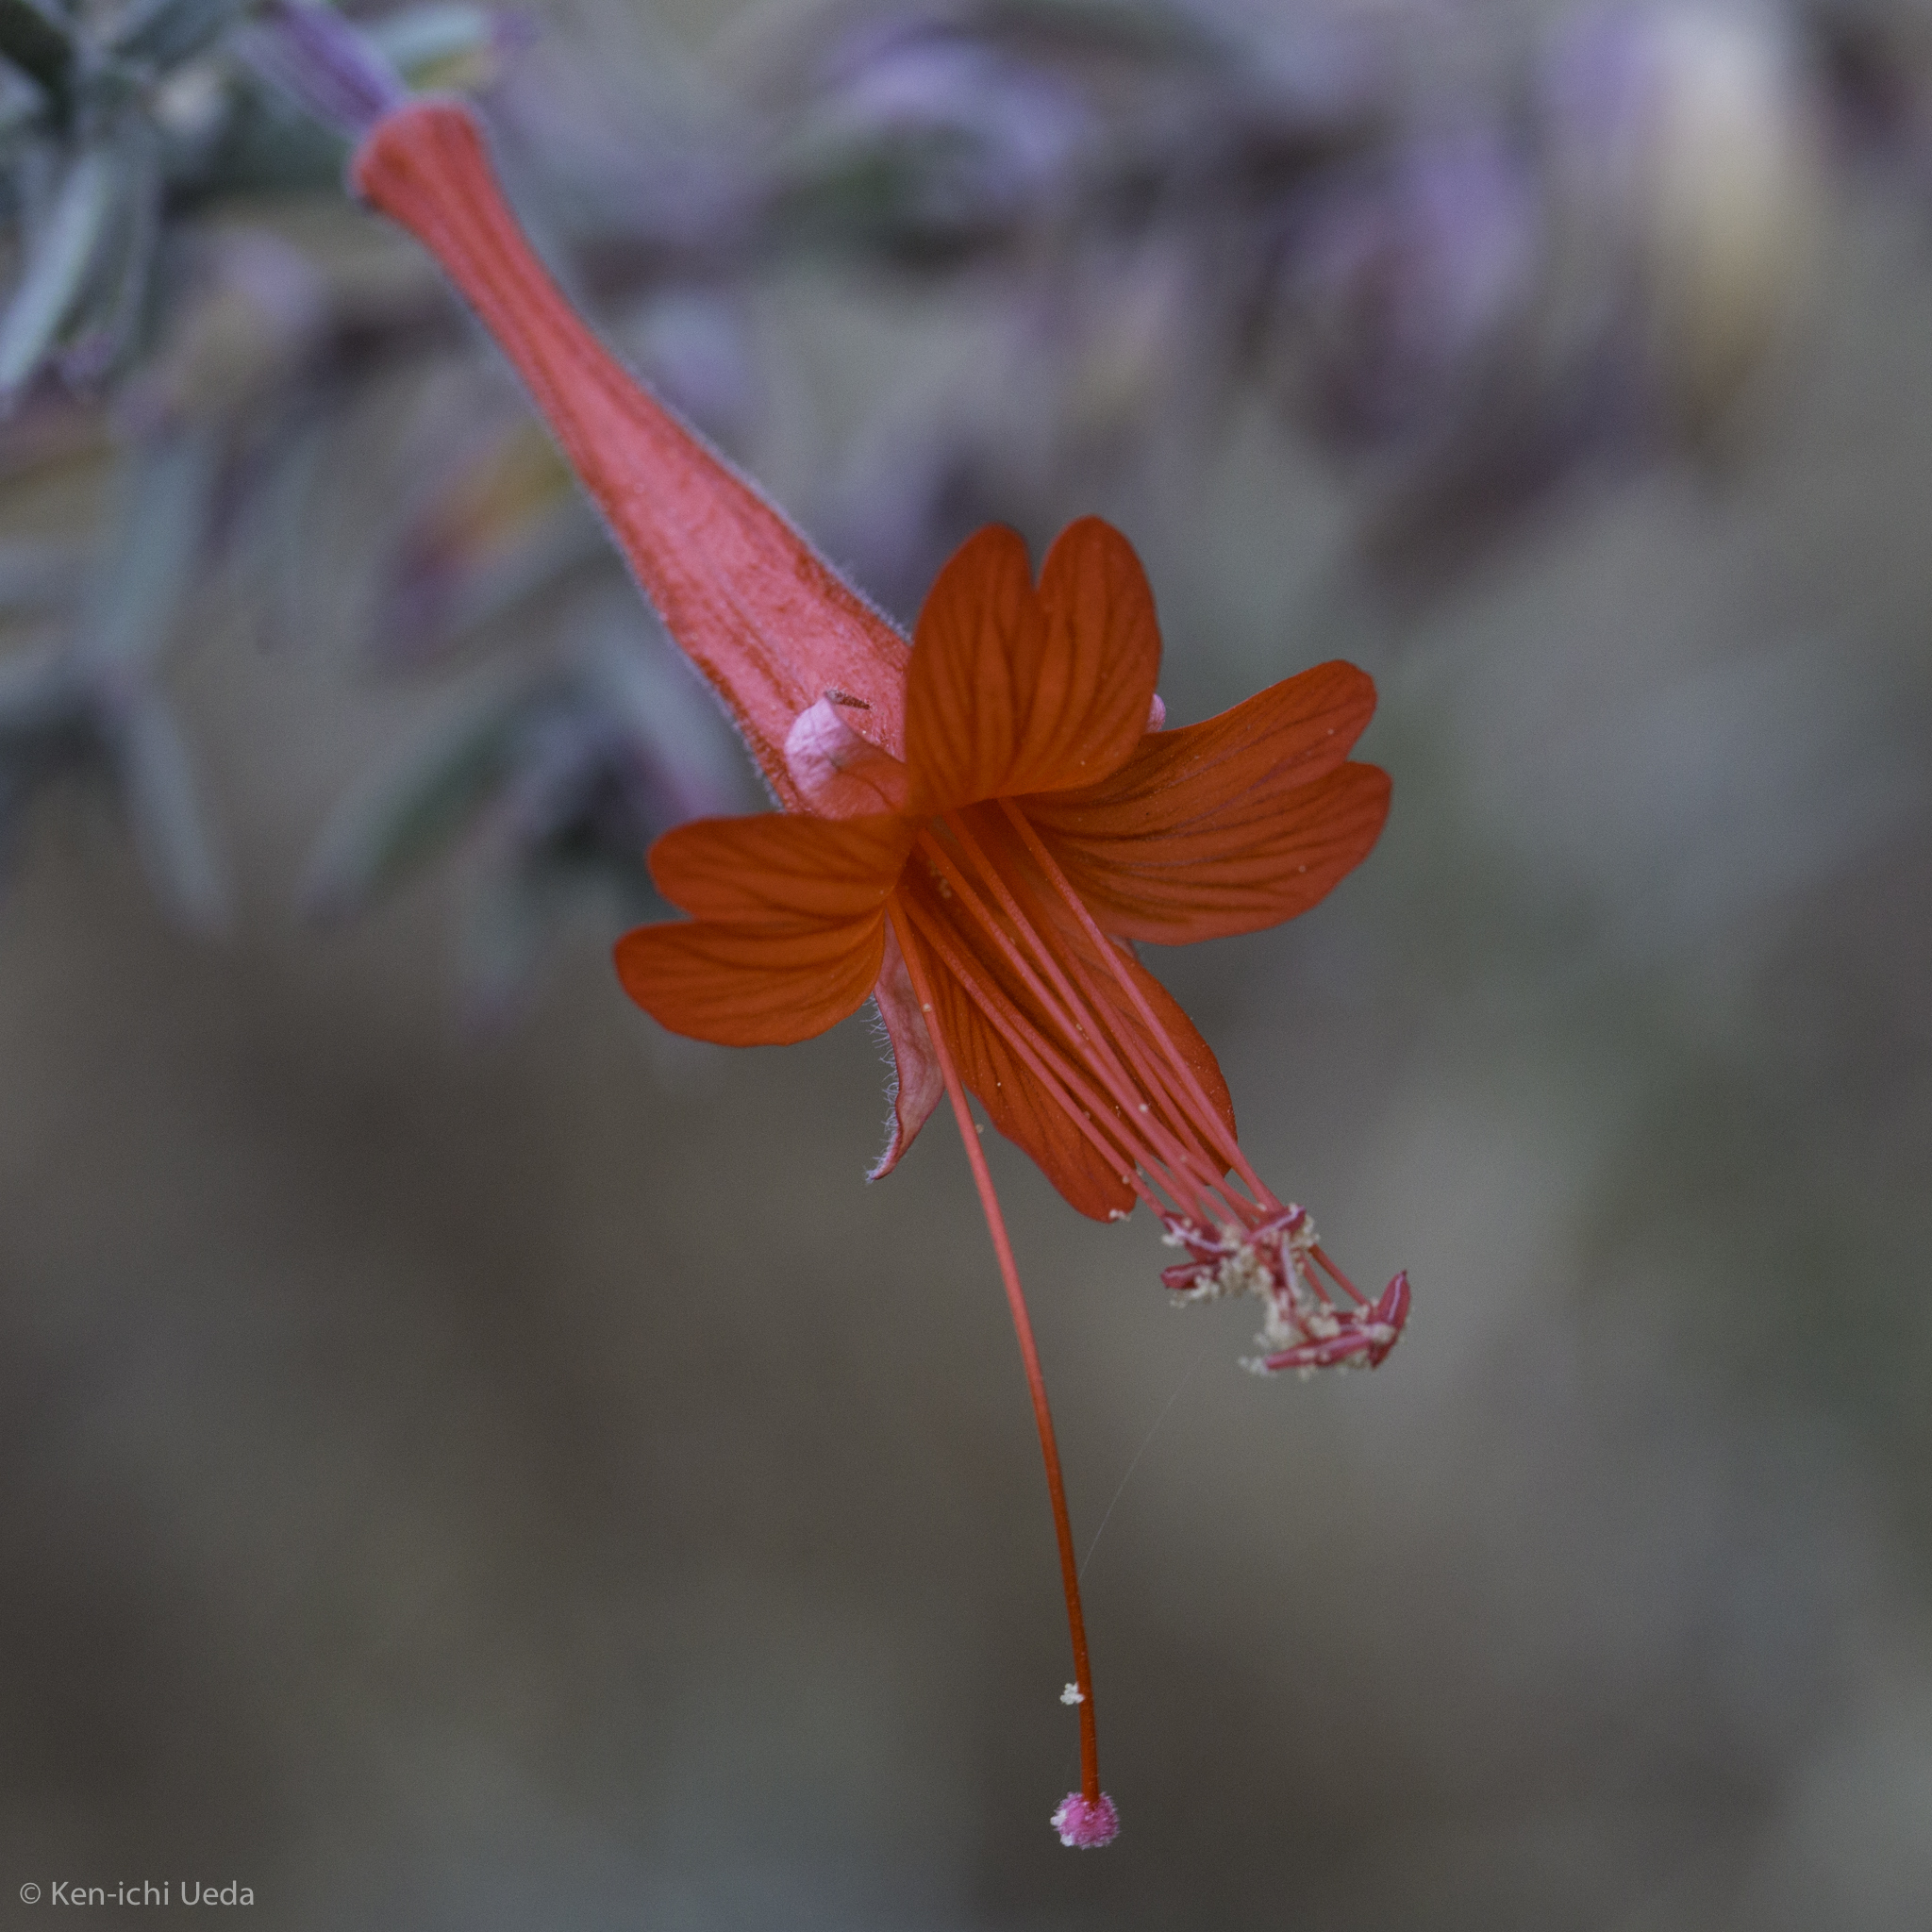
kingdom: Plantae
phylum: Tracheophyta
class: Magnoliopsida
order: Myrtales
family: Onagraceae
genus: Epilobium
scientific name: Epilobium canum
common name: California-fuchsia
